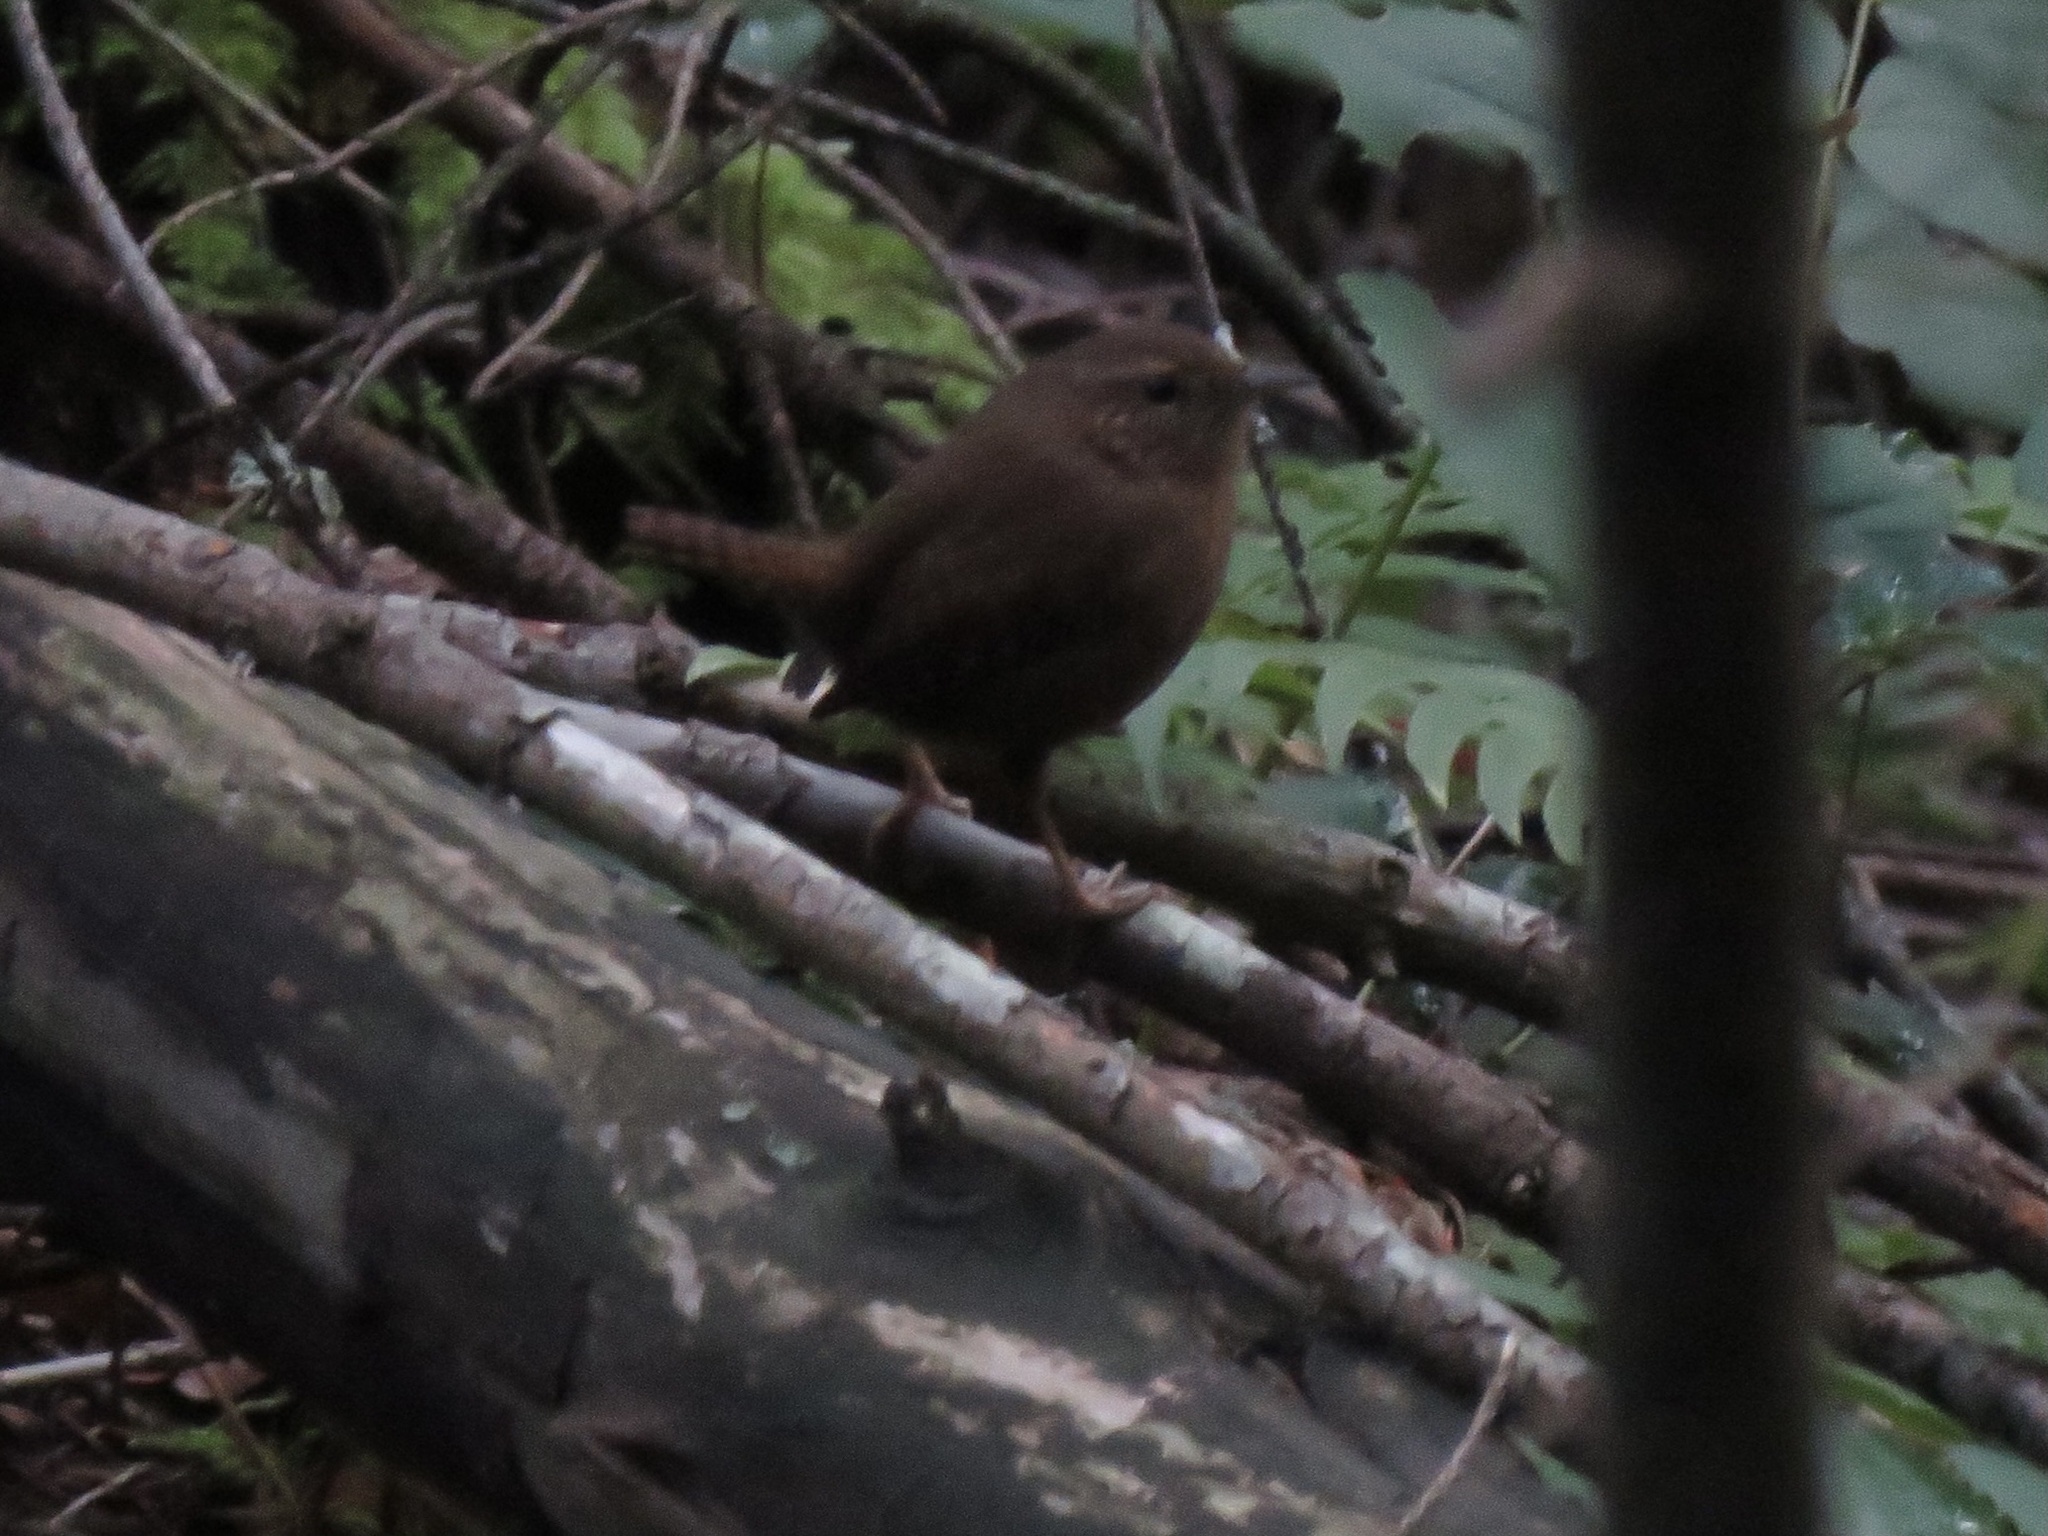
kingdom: Animalia
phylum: Chordata
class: Aves
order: Passeriformes
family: Troglodytidae
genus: Troglodytes
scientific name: Troglodytes pacificus
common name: Pacific wren
